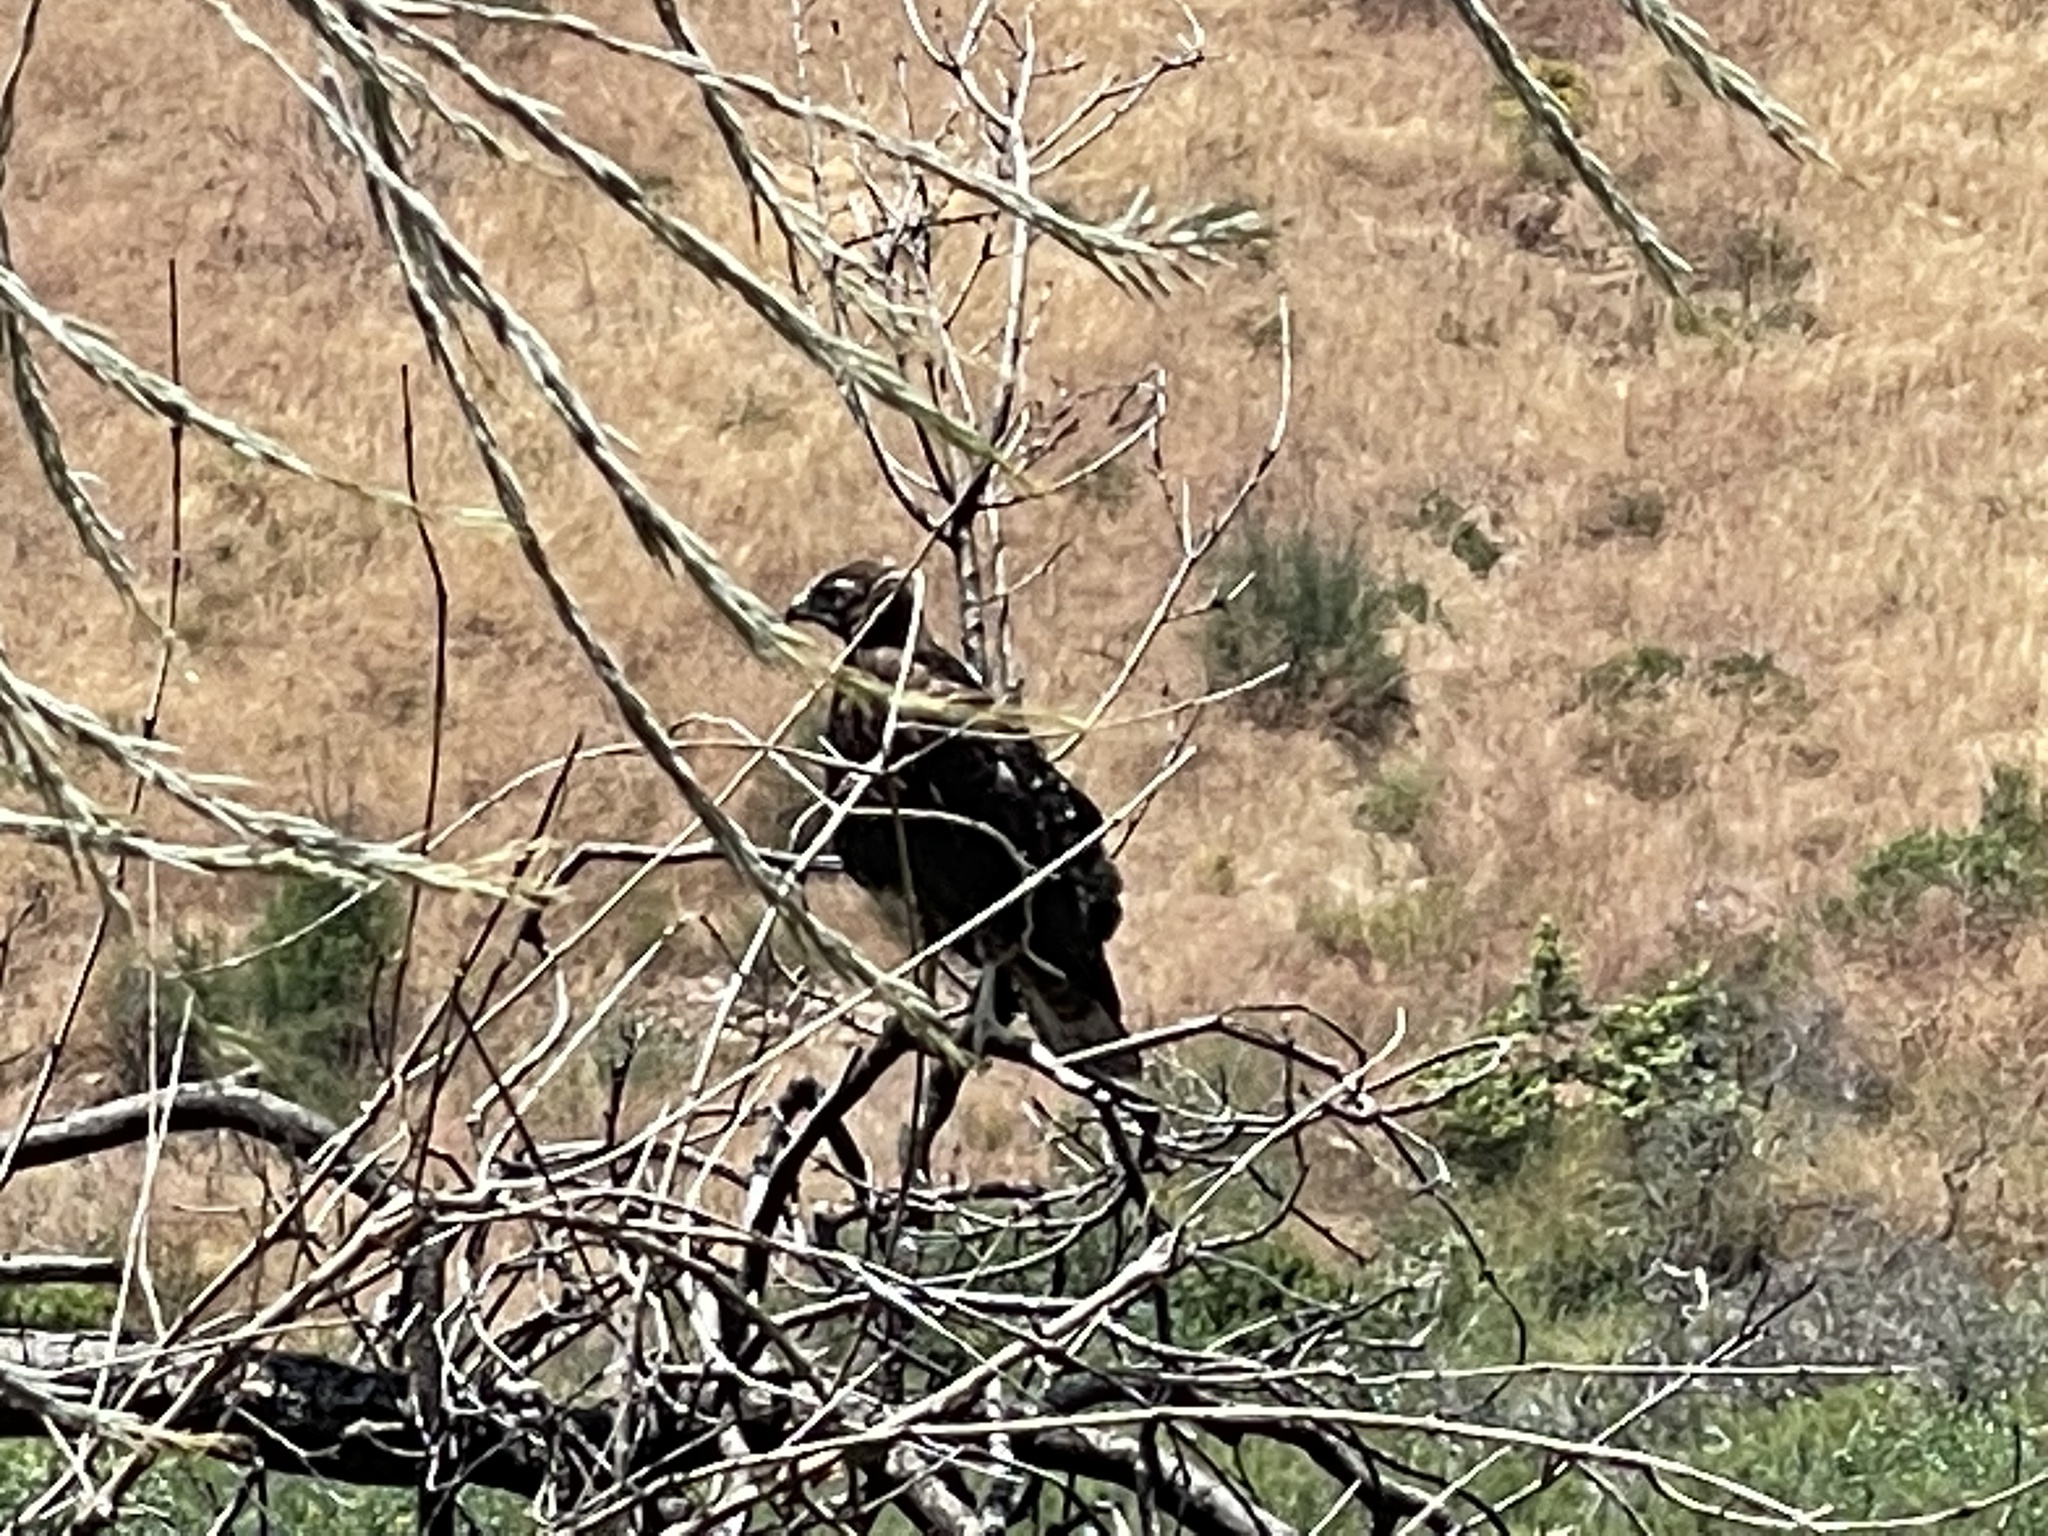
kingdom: Animalia
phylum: Chordata
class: Aves
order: Accipitriformes
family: Accipitridae
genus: Buteo
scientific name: Buteo jamaicensis
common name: Red-tailed hawk
